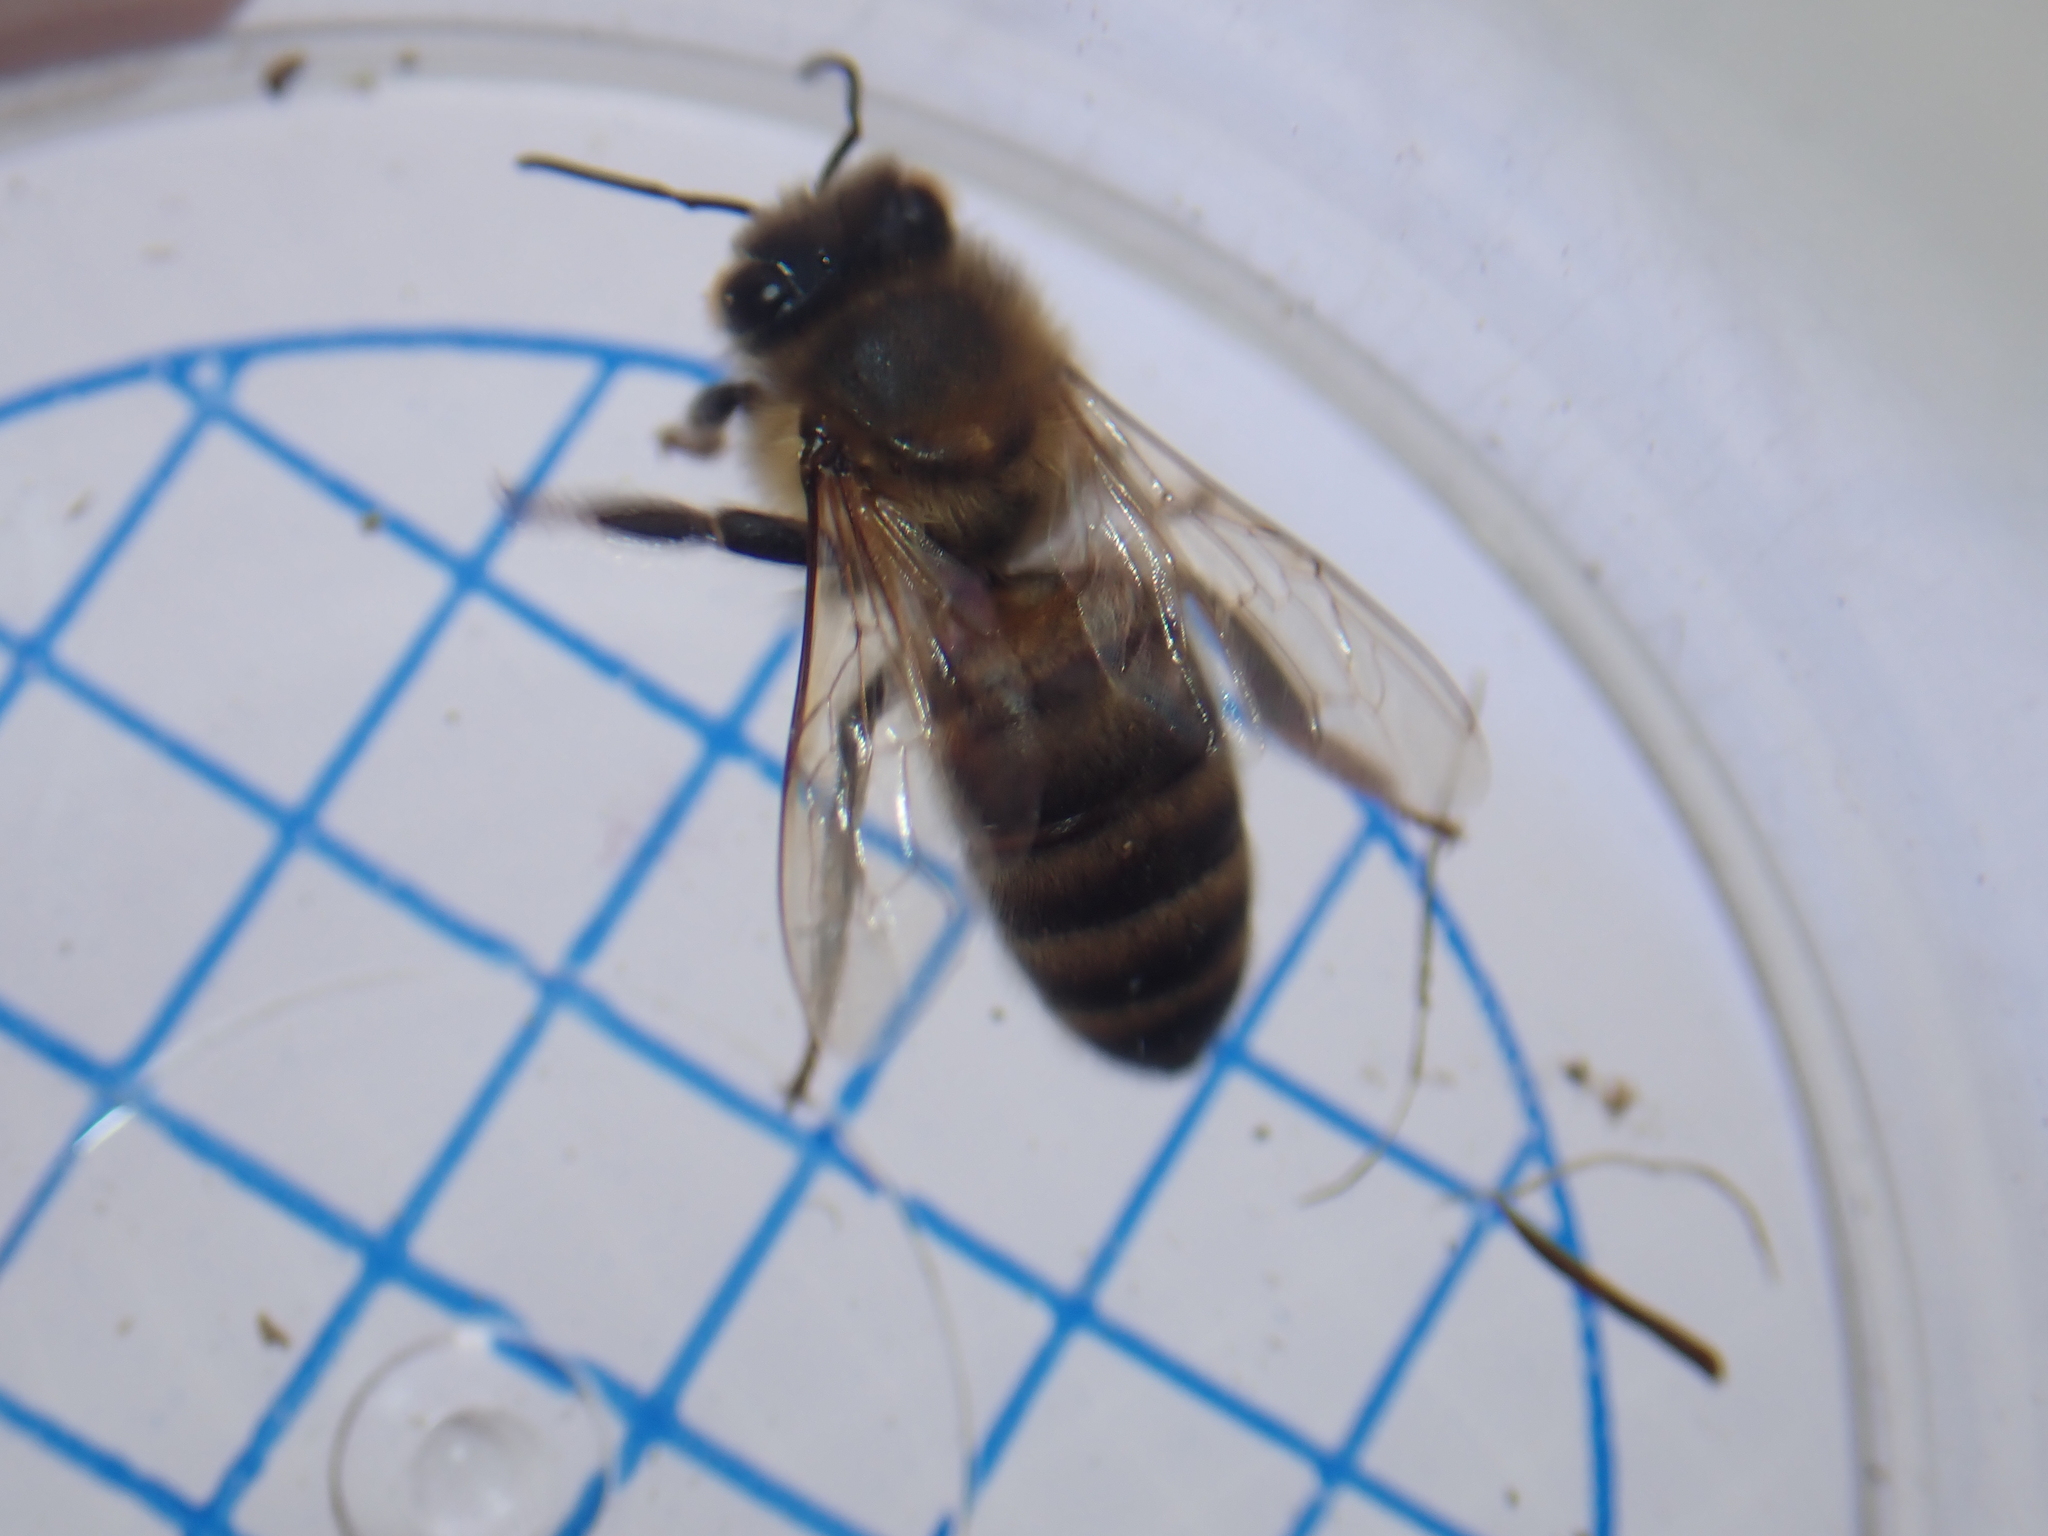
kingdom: Animalia
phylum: Arthropoda
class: Insecta
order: Hymenoptera
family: Apidae
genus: Apis
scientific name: Apis mellifera
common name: Honey bee
